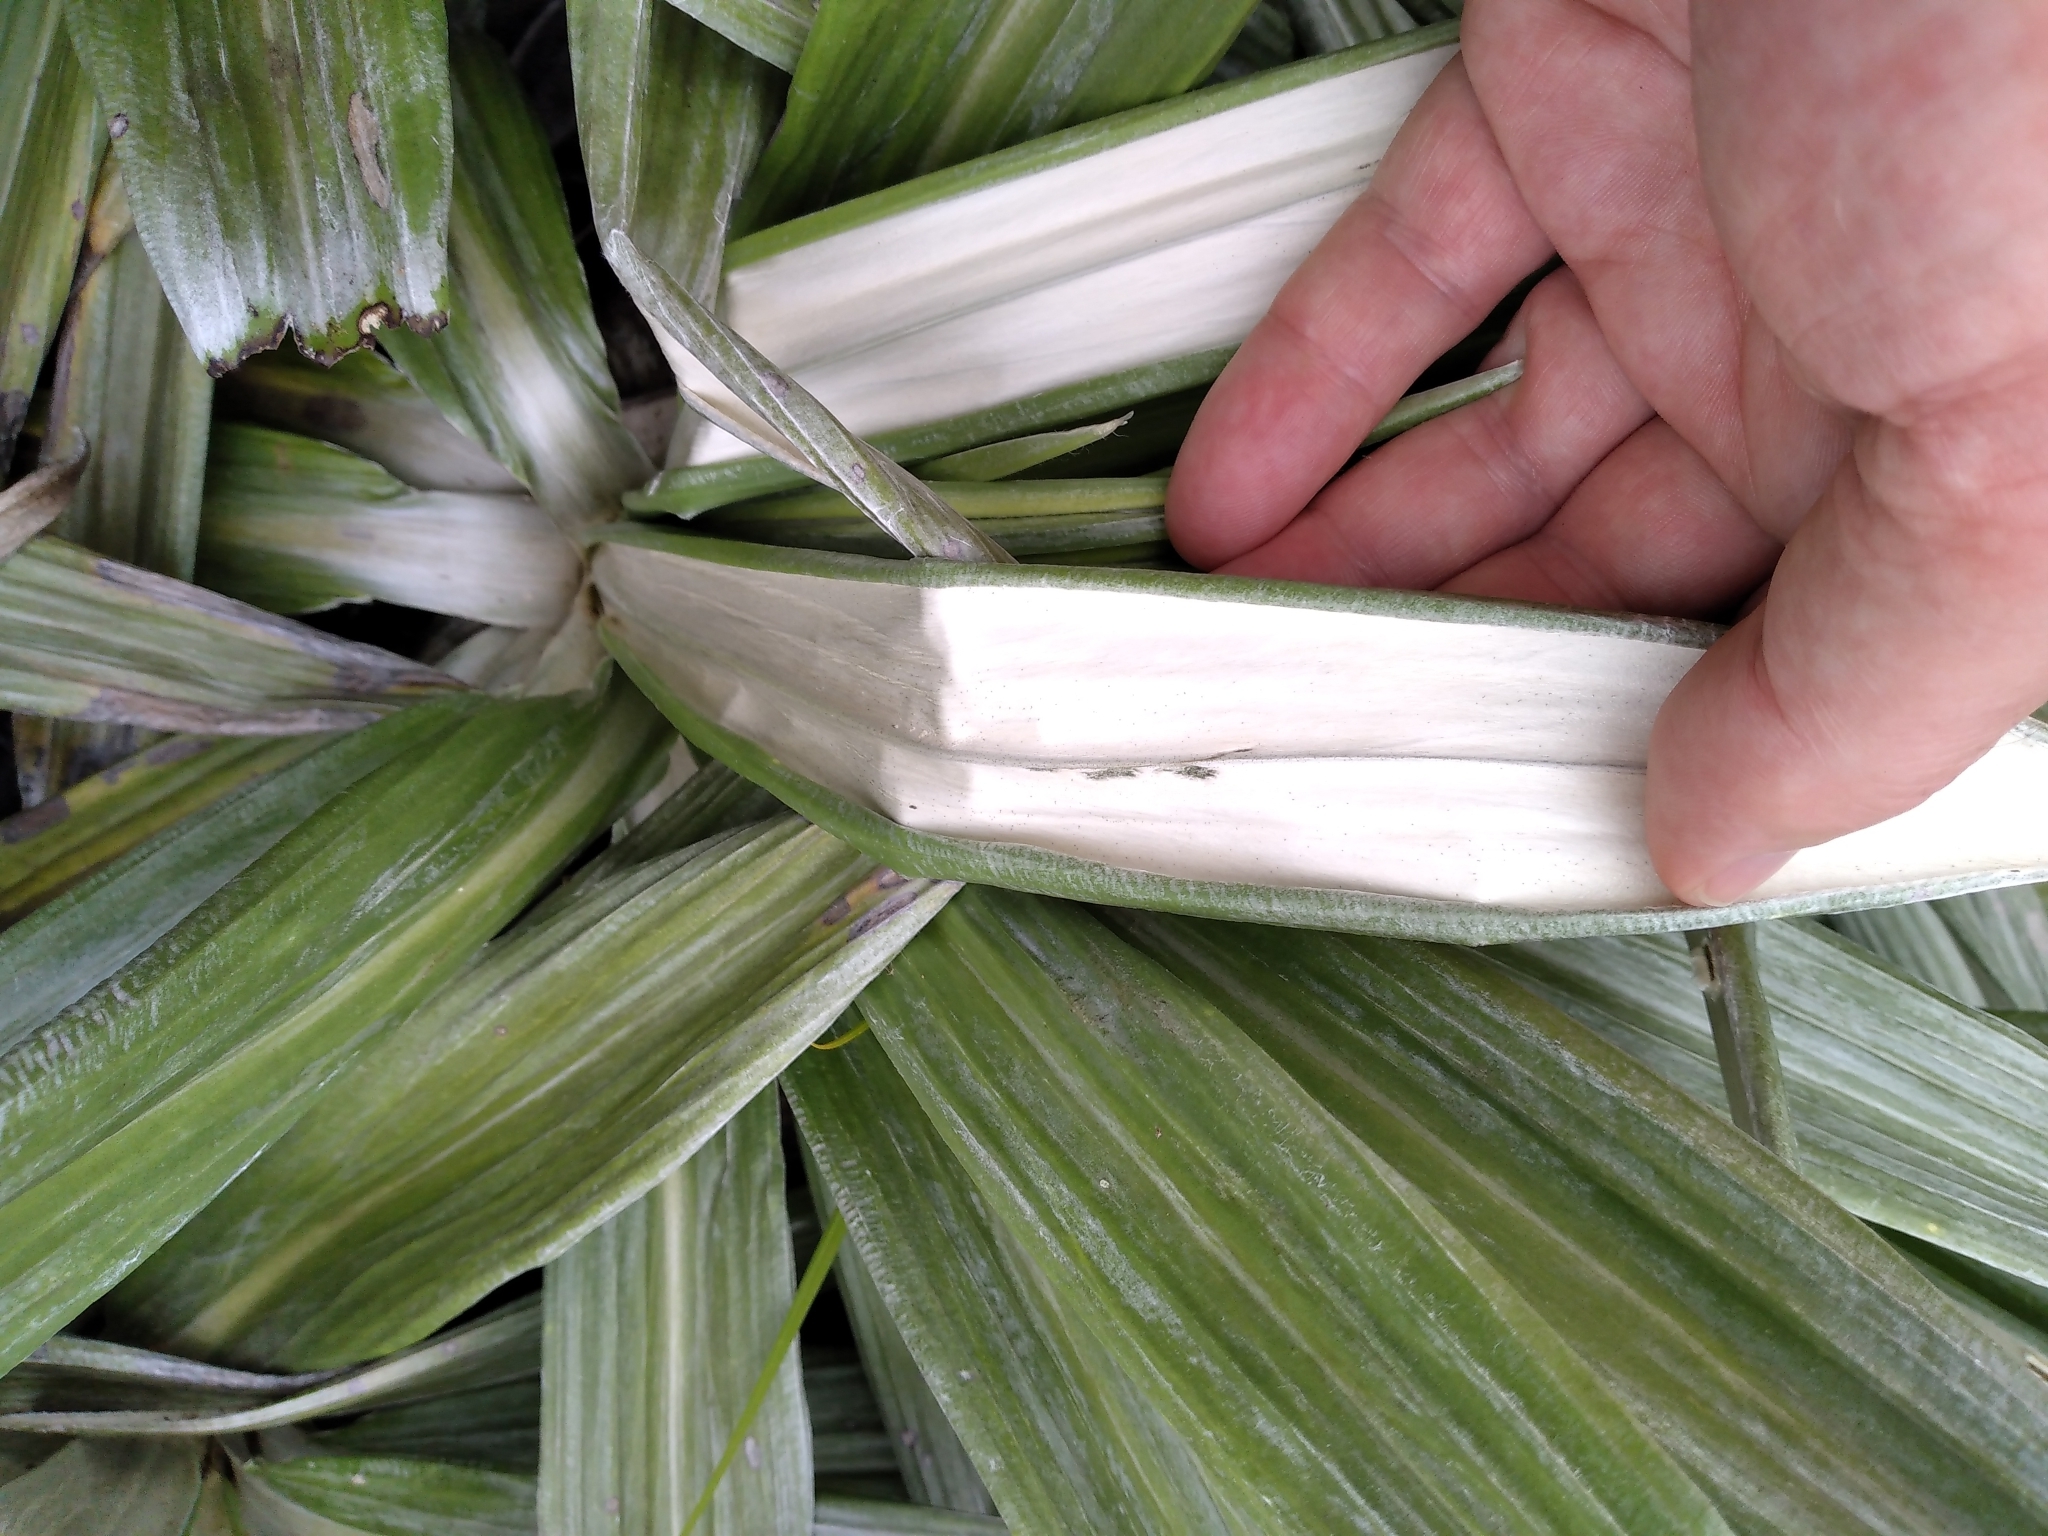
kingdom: Plantae
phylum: Tracheophyta
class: Magnoliopsida
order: Asterales
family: Asteraceae
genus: Celmisia
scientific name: Celmisia semicordata
